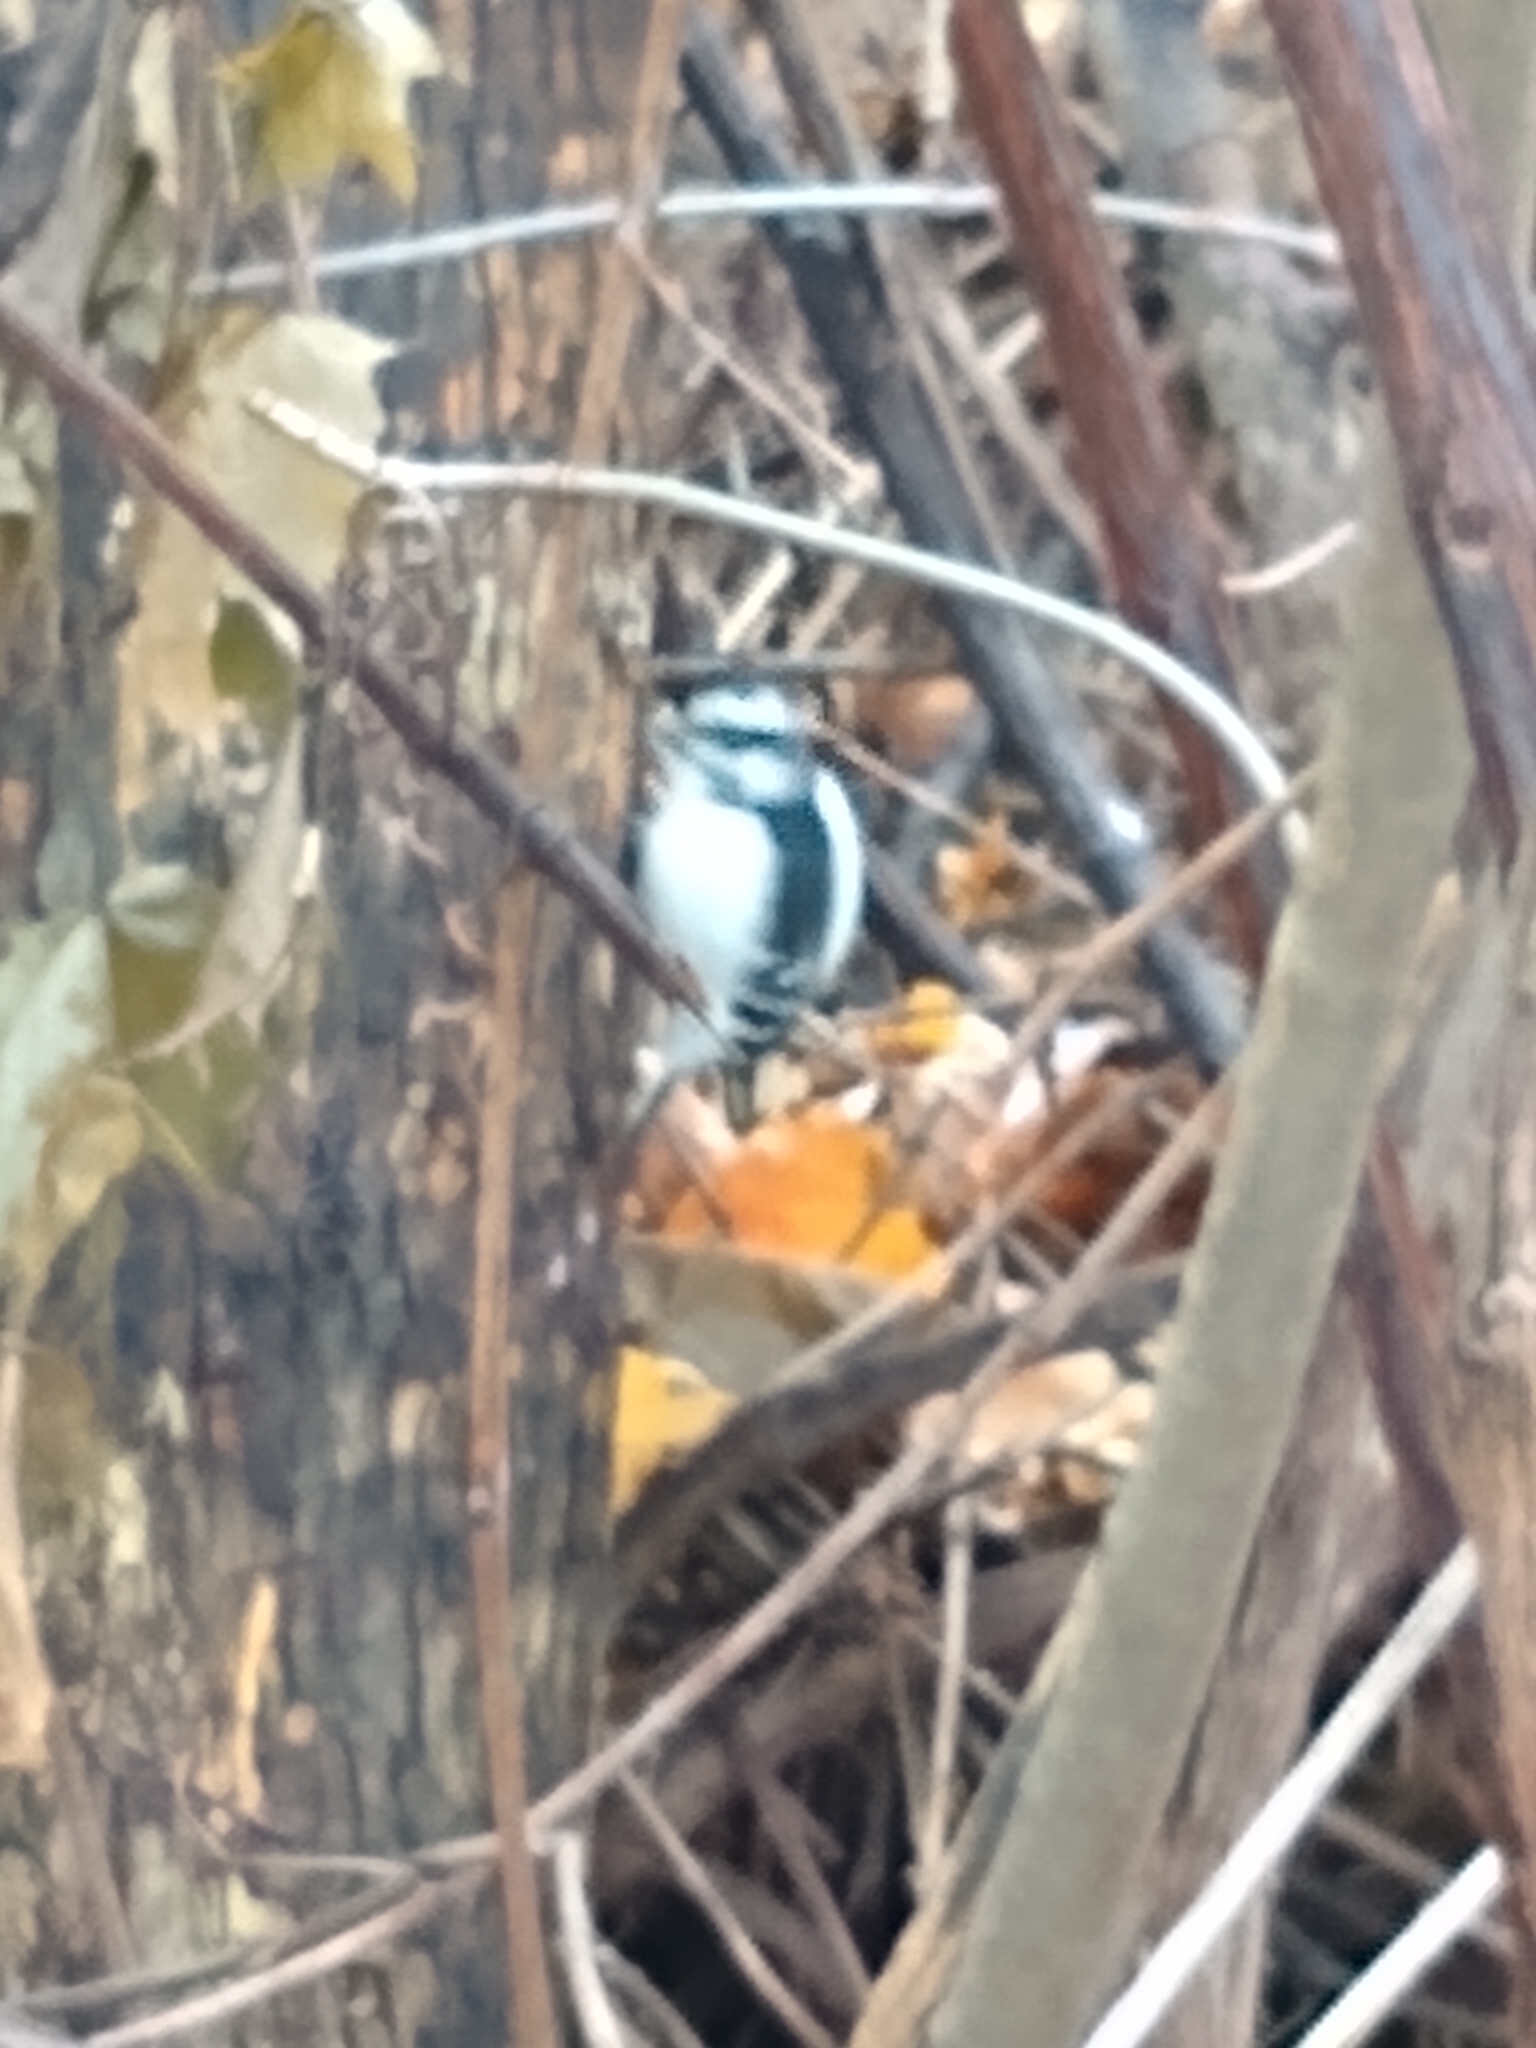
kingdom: Animalia
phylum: Chordata
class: Aves
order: Piciformes
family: Picidae
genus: Dryobates
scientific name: Dryobates pubescens
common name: Downy woodpecker
